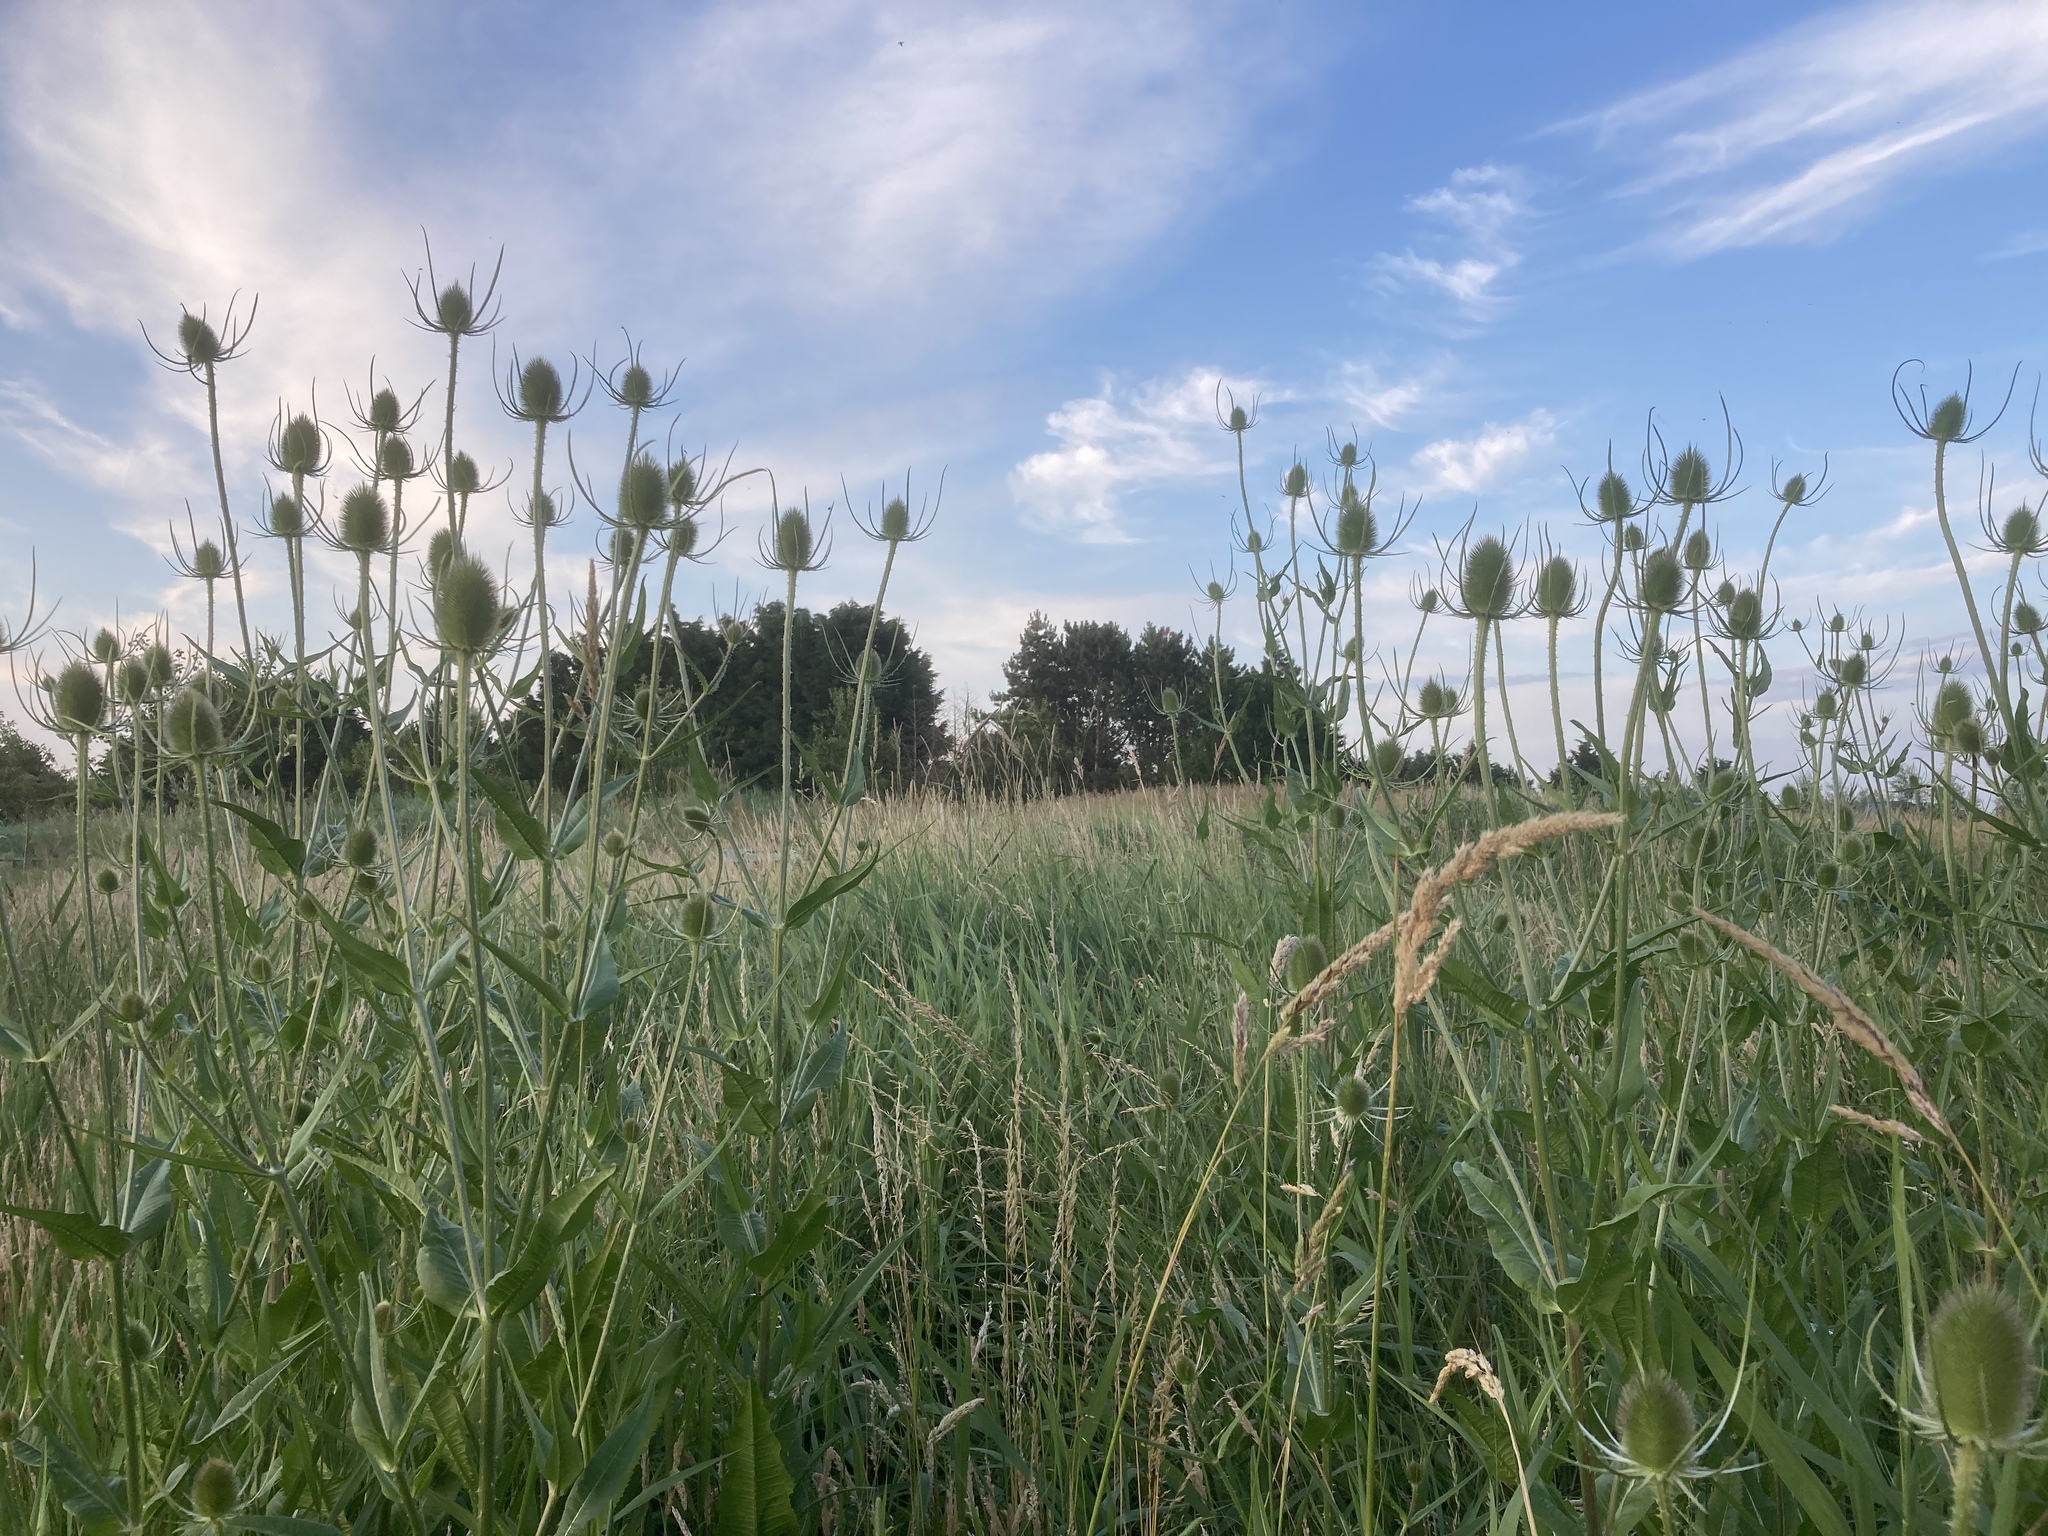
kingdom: Plantae
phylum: Tracheophyta
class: Magnoliopsida
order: Dipsacales
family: Caprifoliaceae
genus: Dipsacus
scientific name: Dipsacus fullonum
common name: Teasel
